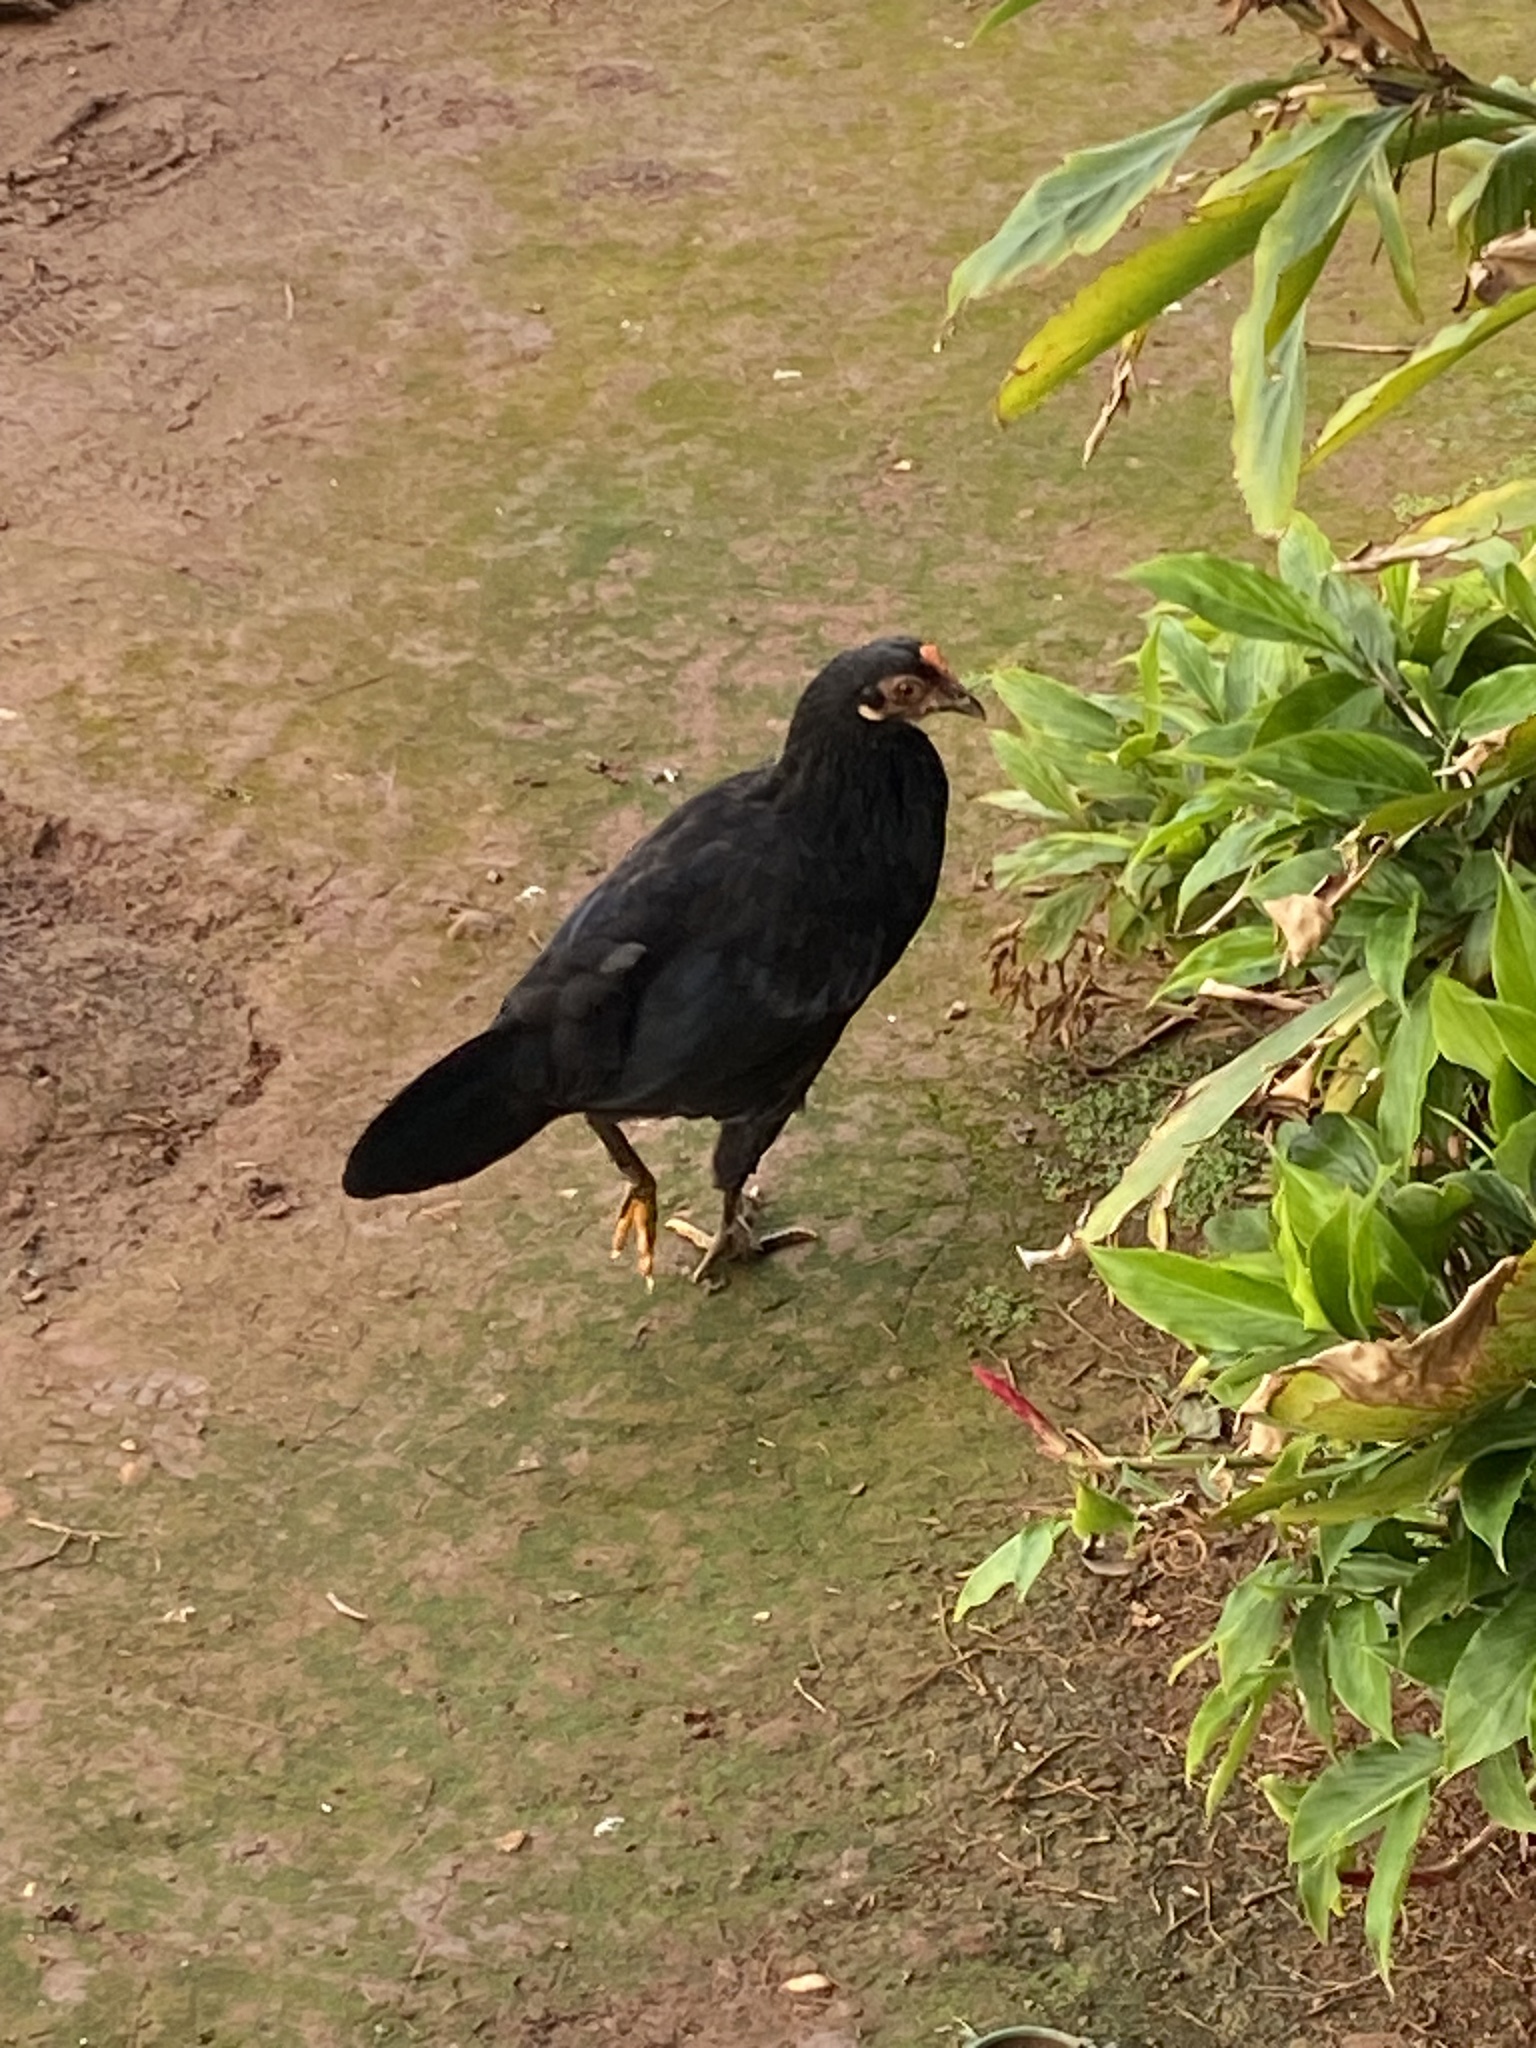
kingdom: Animalia
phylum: Chordata
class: Aves
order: Galliformes
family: Phasianidae
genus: Gallus
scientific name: Gallus gallus
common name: Red junglefowl
